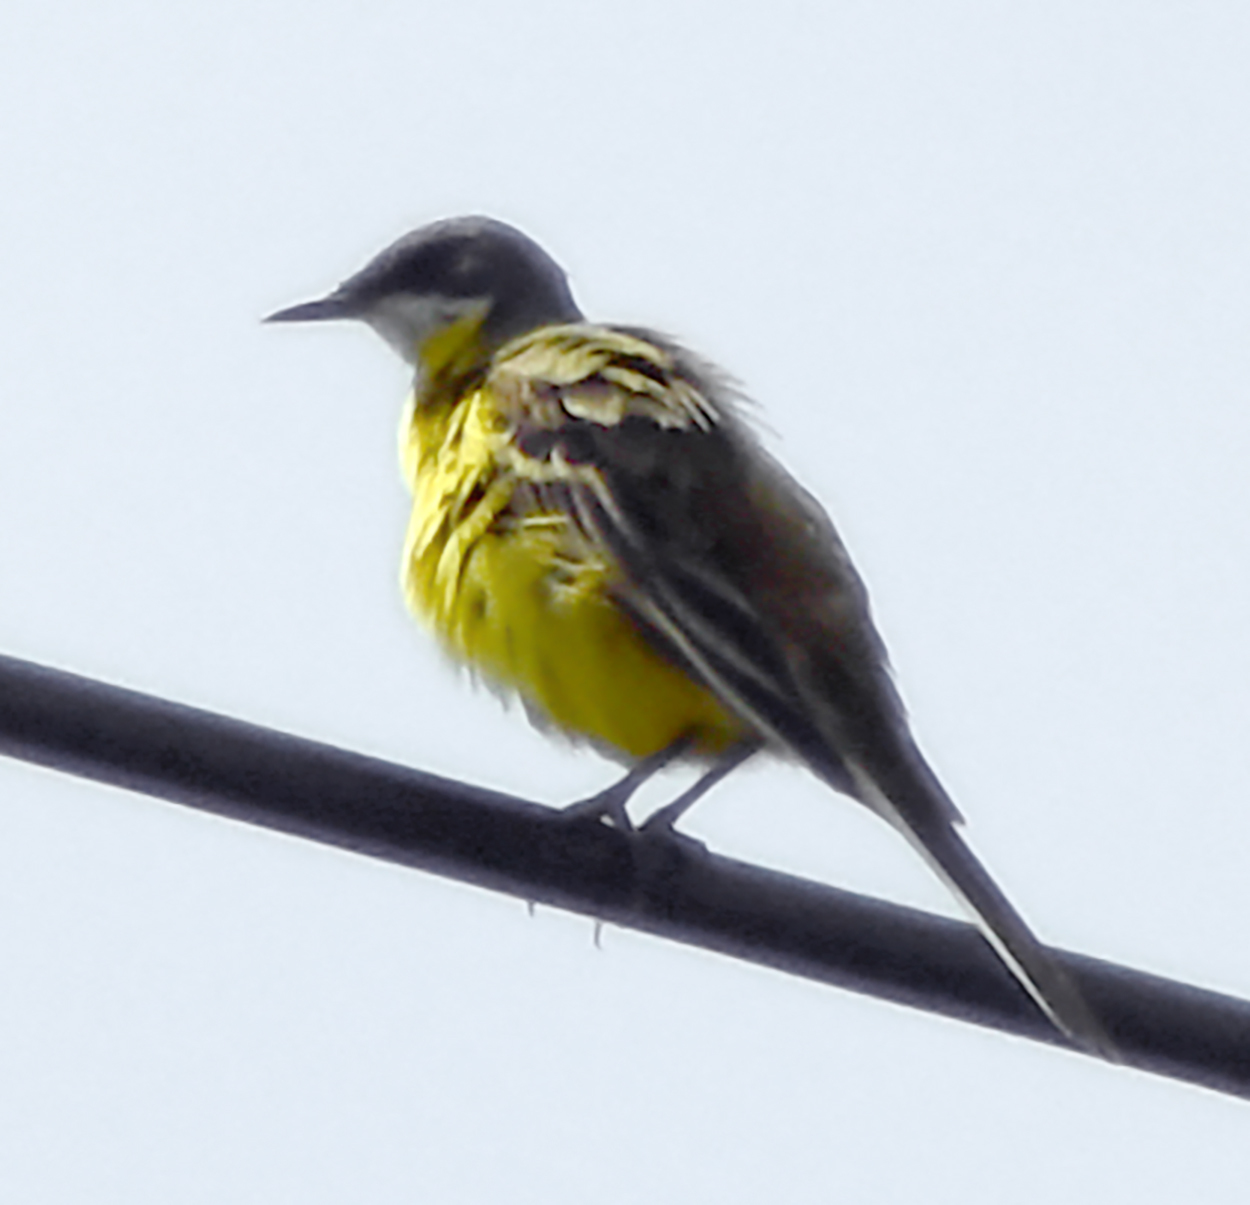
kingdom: Animalia
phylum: Chordata
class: Aves
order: Passeriformes
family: Motacillidae
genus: Motacilla
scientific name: Motacilla flava
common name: Western yellow wagtail
